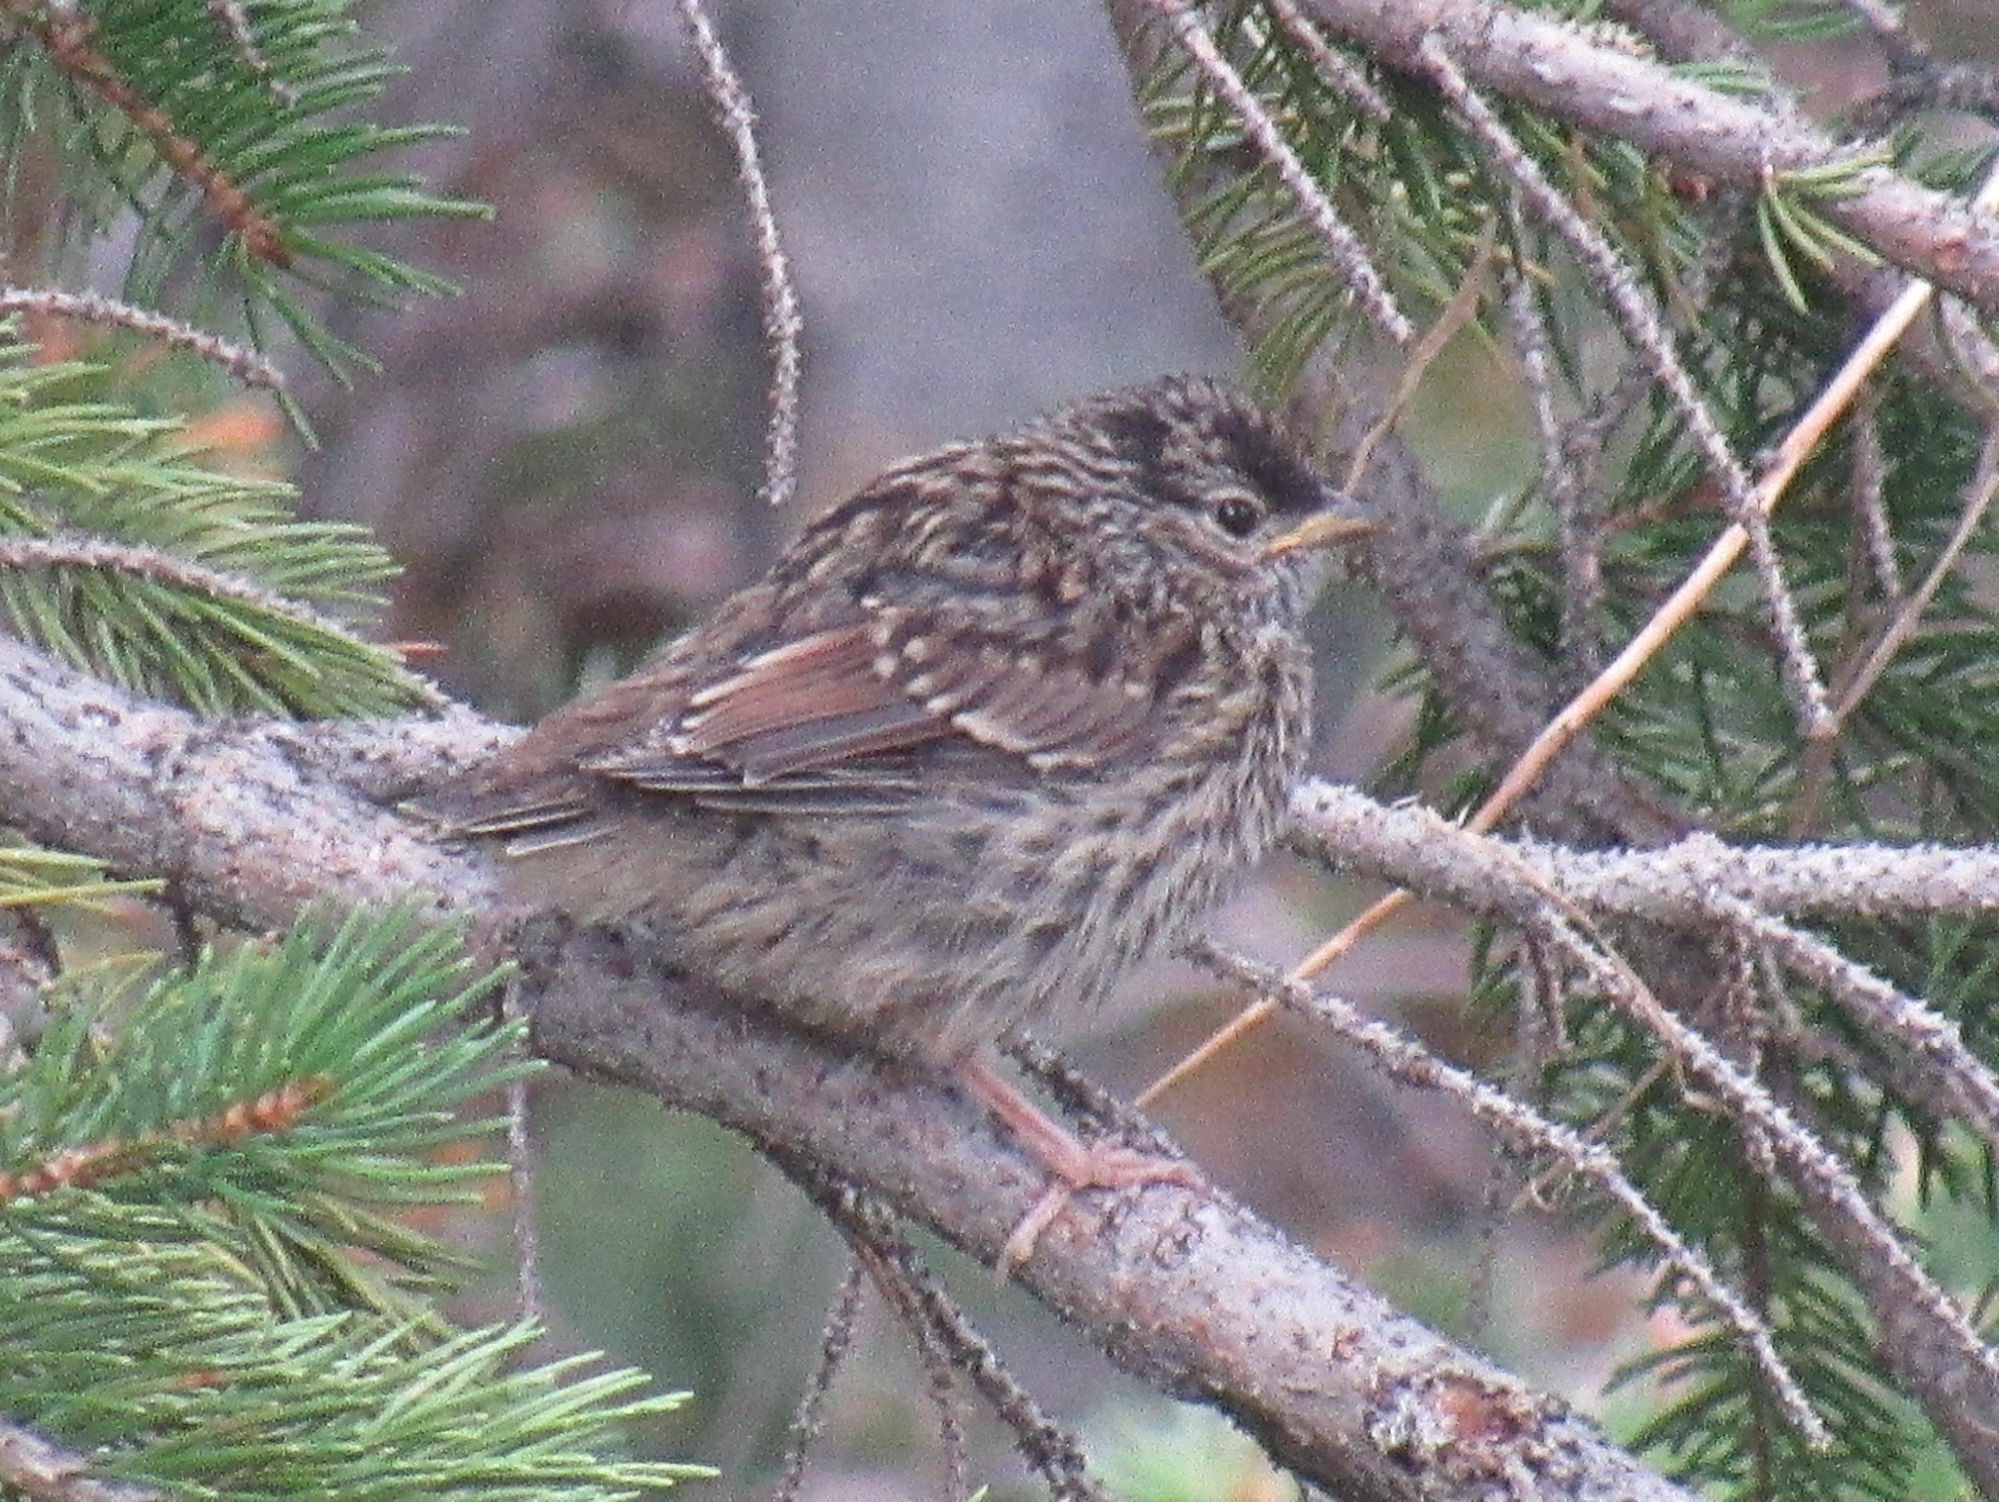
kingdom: Animalia
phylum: Chordata
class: Aves
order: Passeriformes
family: Passerellidae
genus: Zonotrichia
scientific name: Zonotrichia leucophrys
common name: White-crowned sparrow
